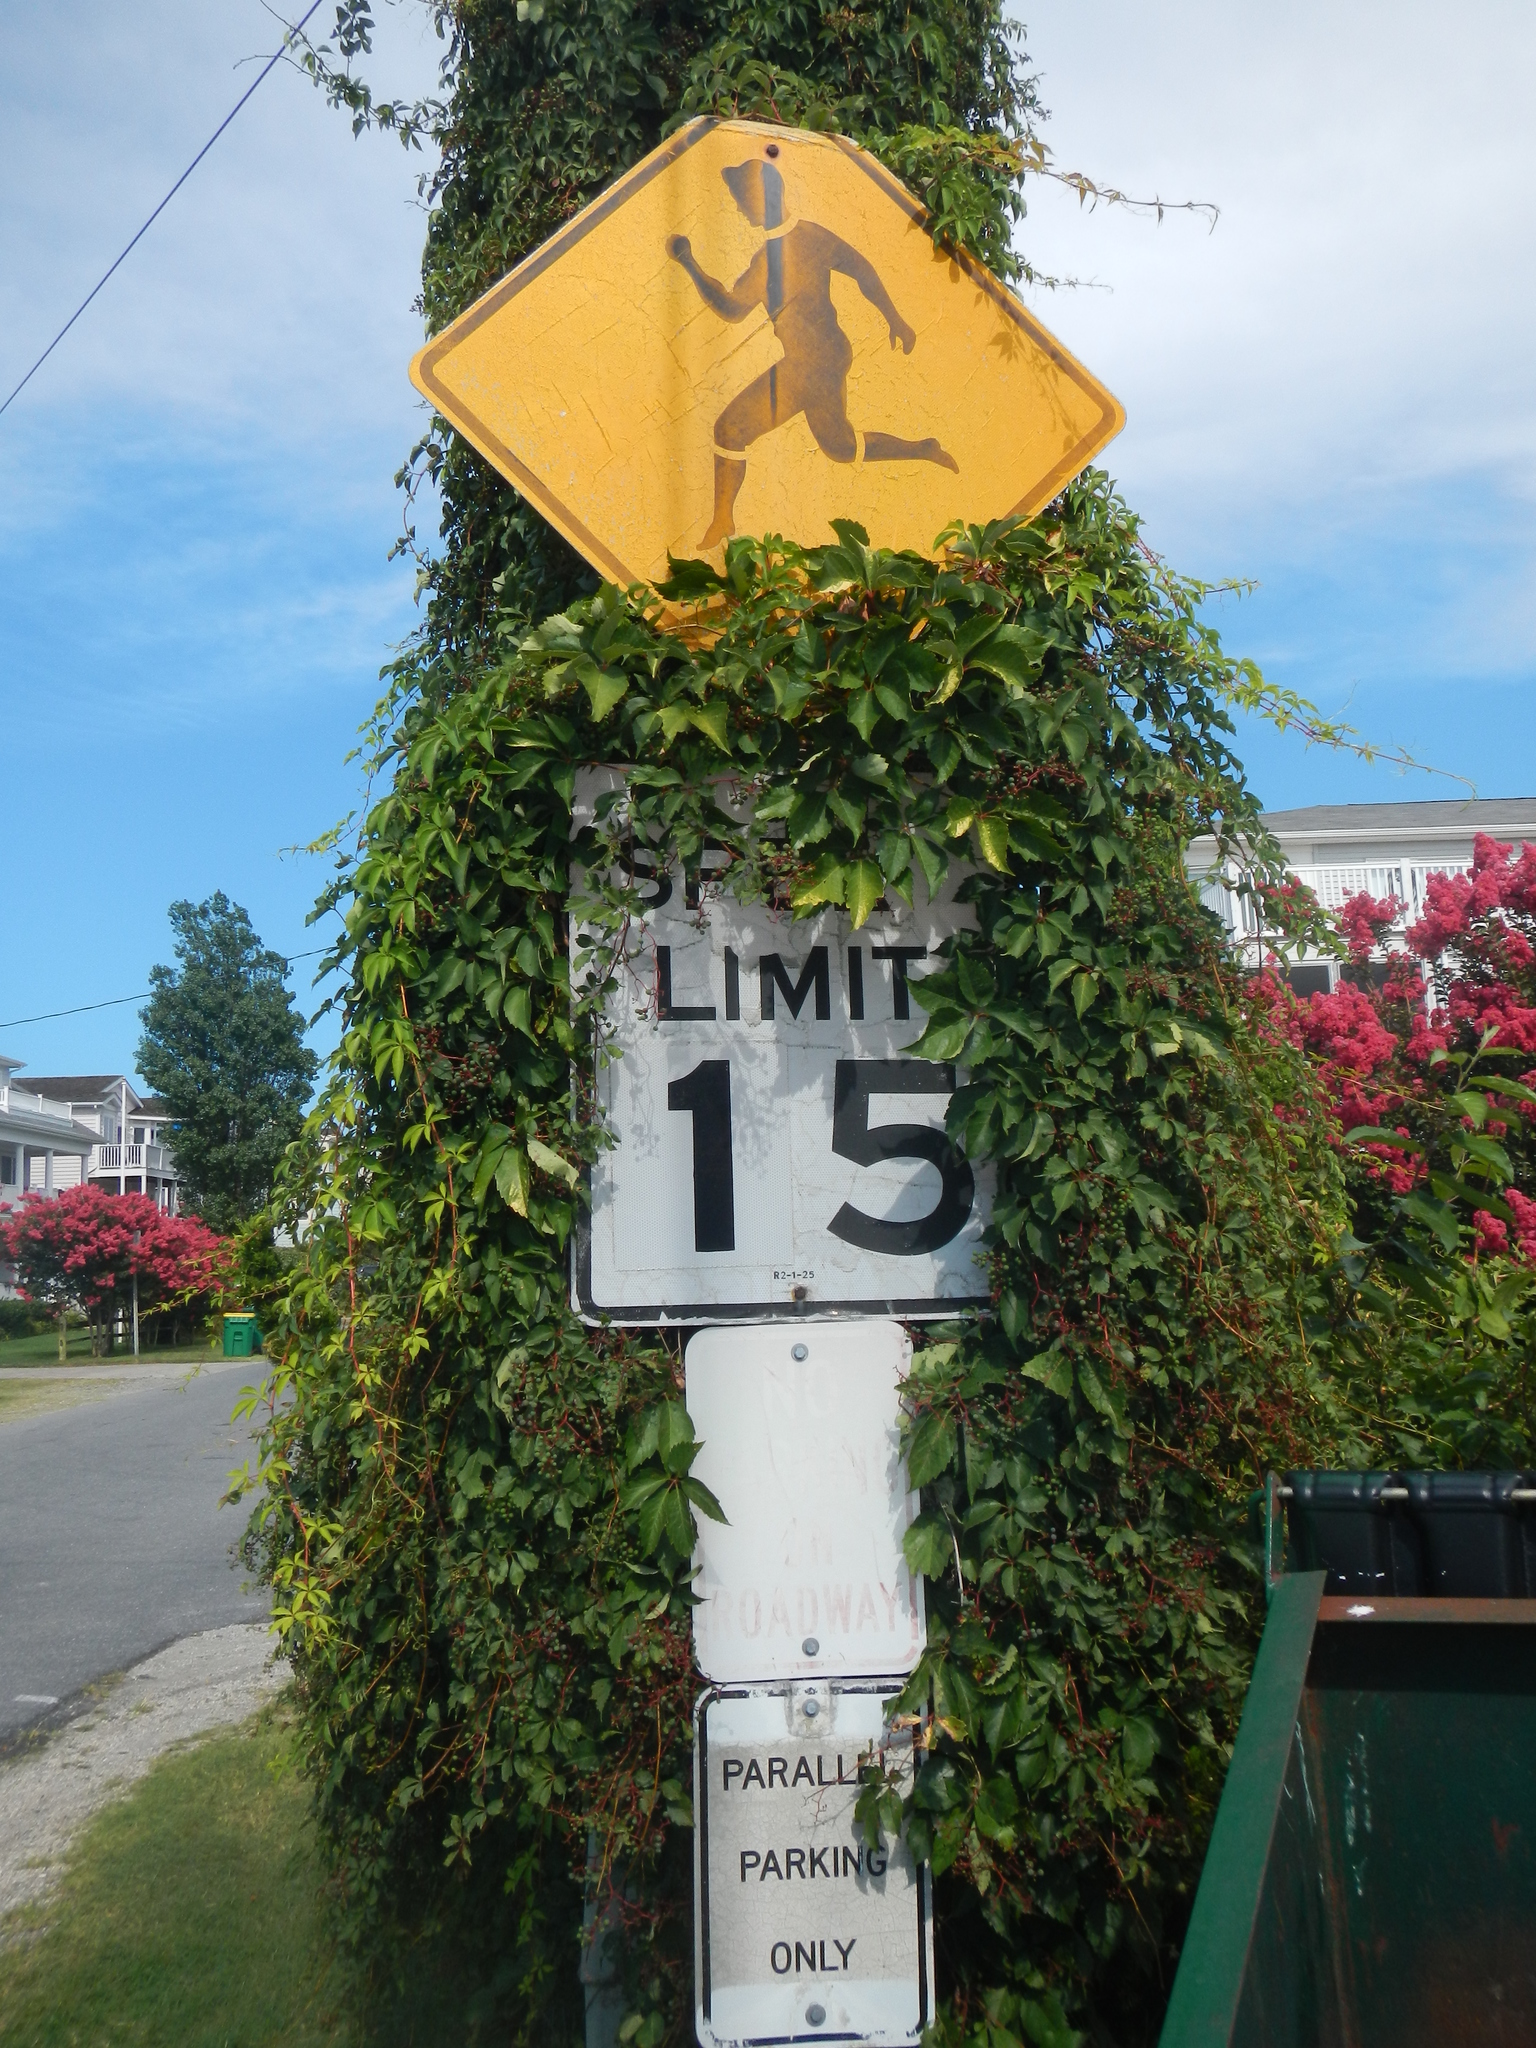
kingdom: Plantae
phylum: Tracheophyta
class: Magnoliopsida
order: Vitales
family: Vitaceae
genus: Parthenocissus
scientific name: Parthenocissus quinquefolia
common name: Virginia-creeper
